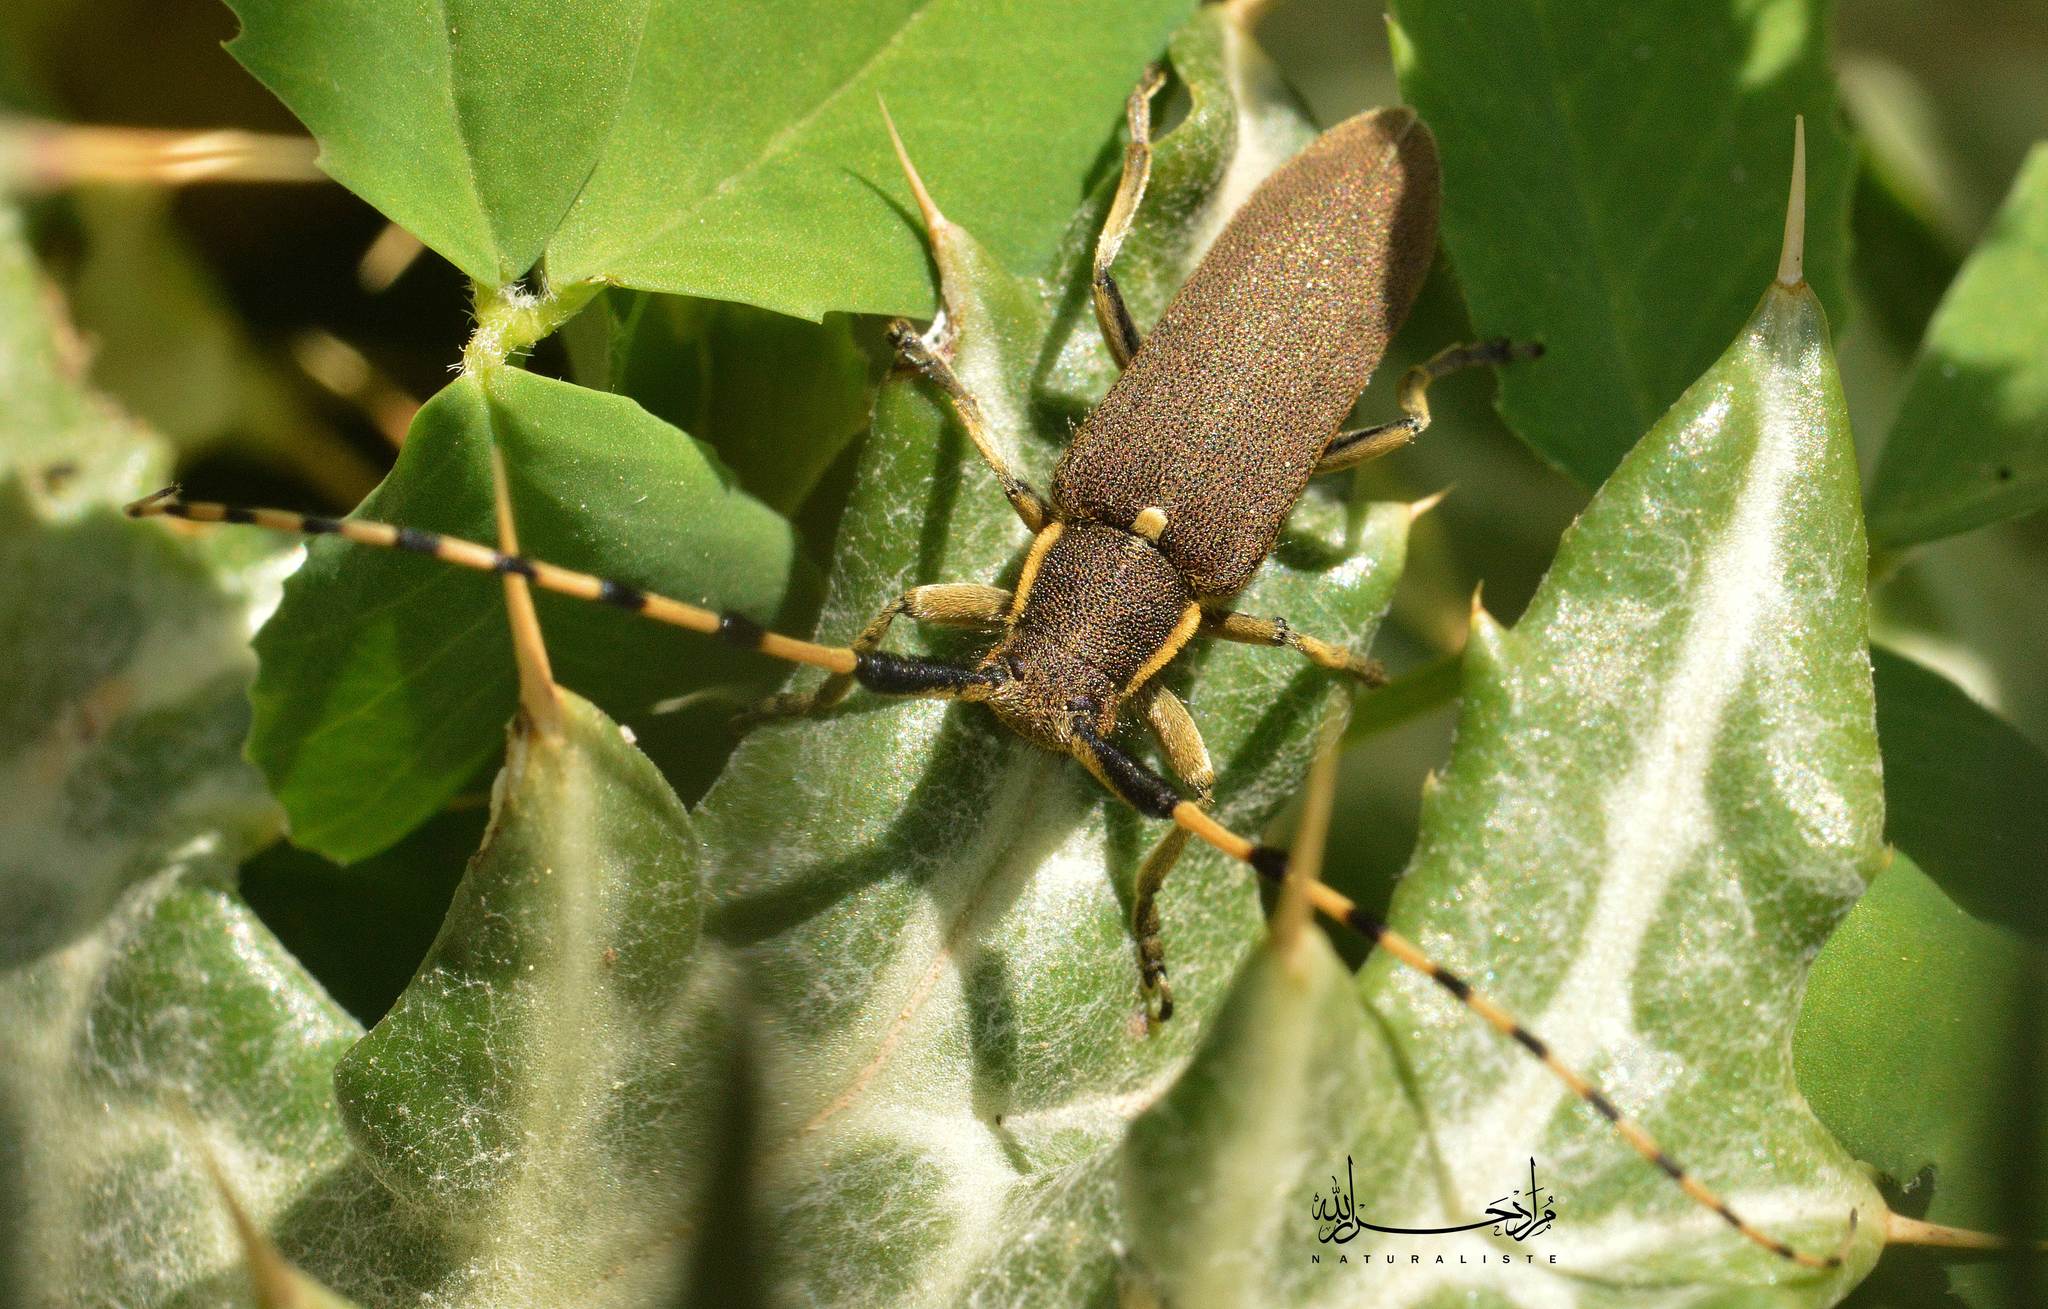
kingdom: Animalia
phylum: Arthropoda
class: Insecta
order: Coleoptera
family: Cerambycidae
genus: Agapanthia
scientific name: Agapanthia annularis
